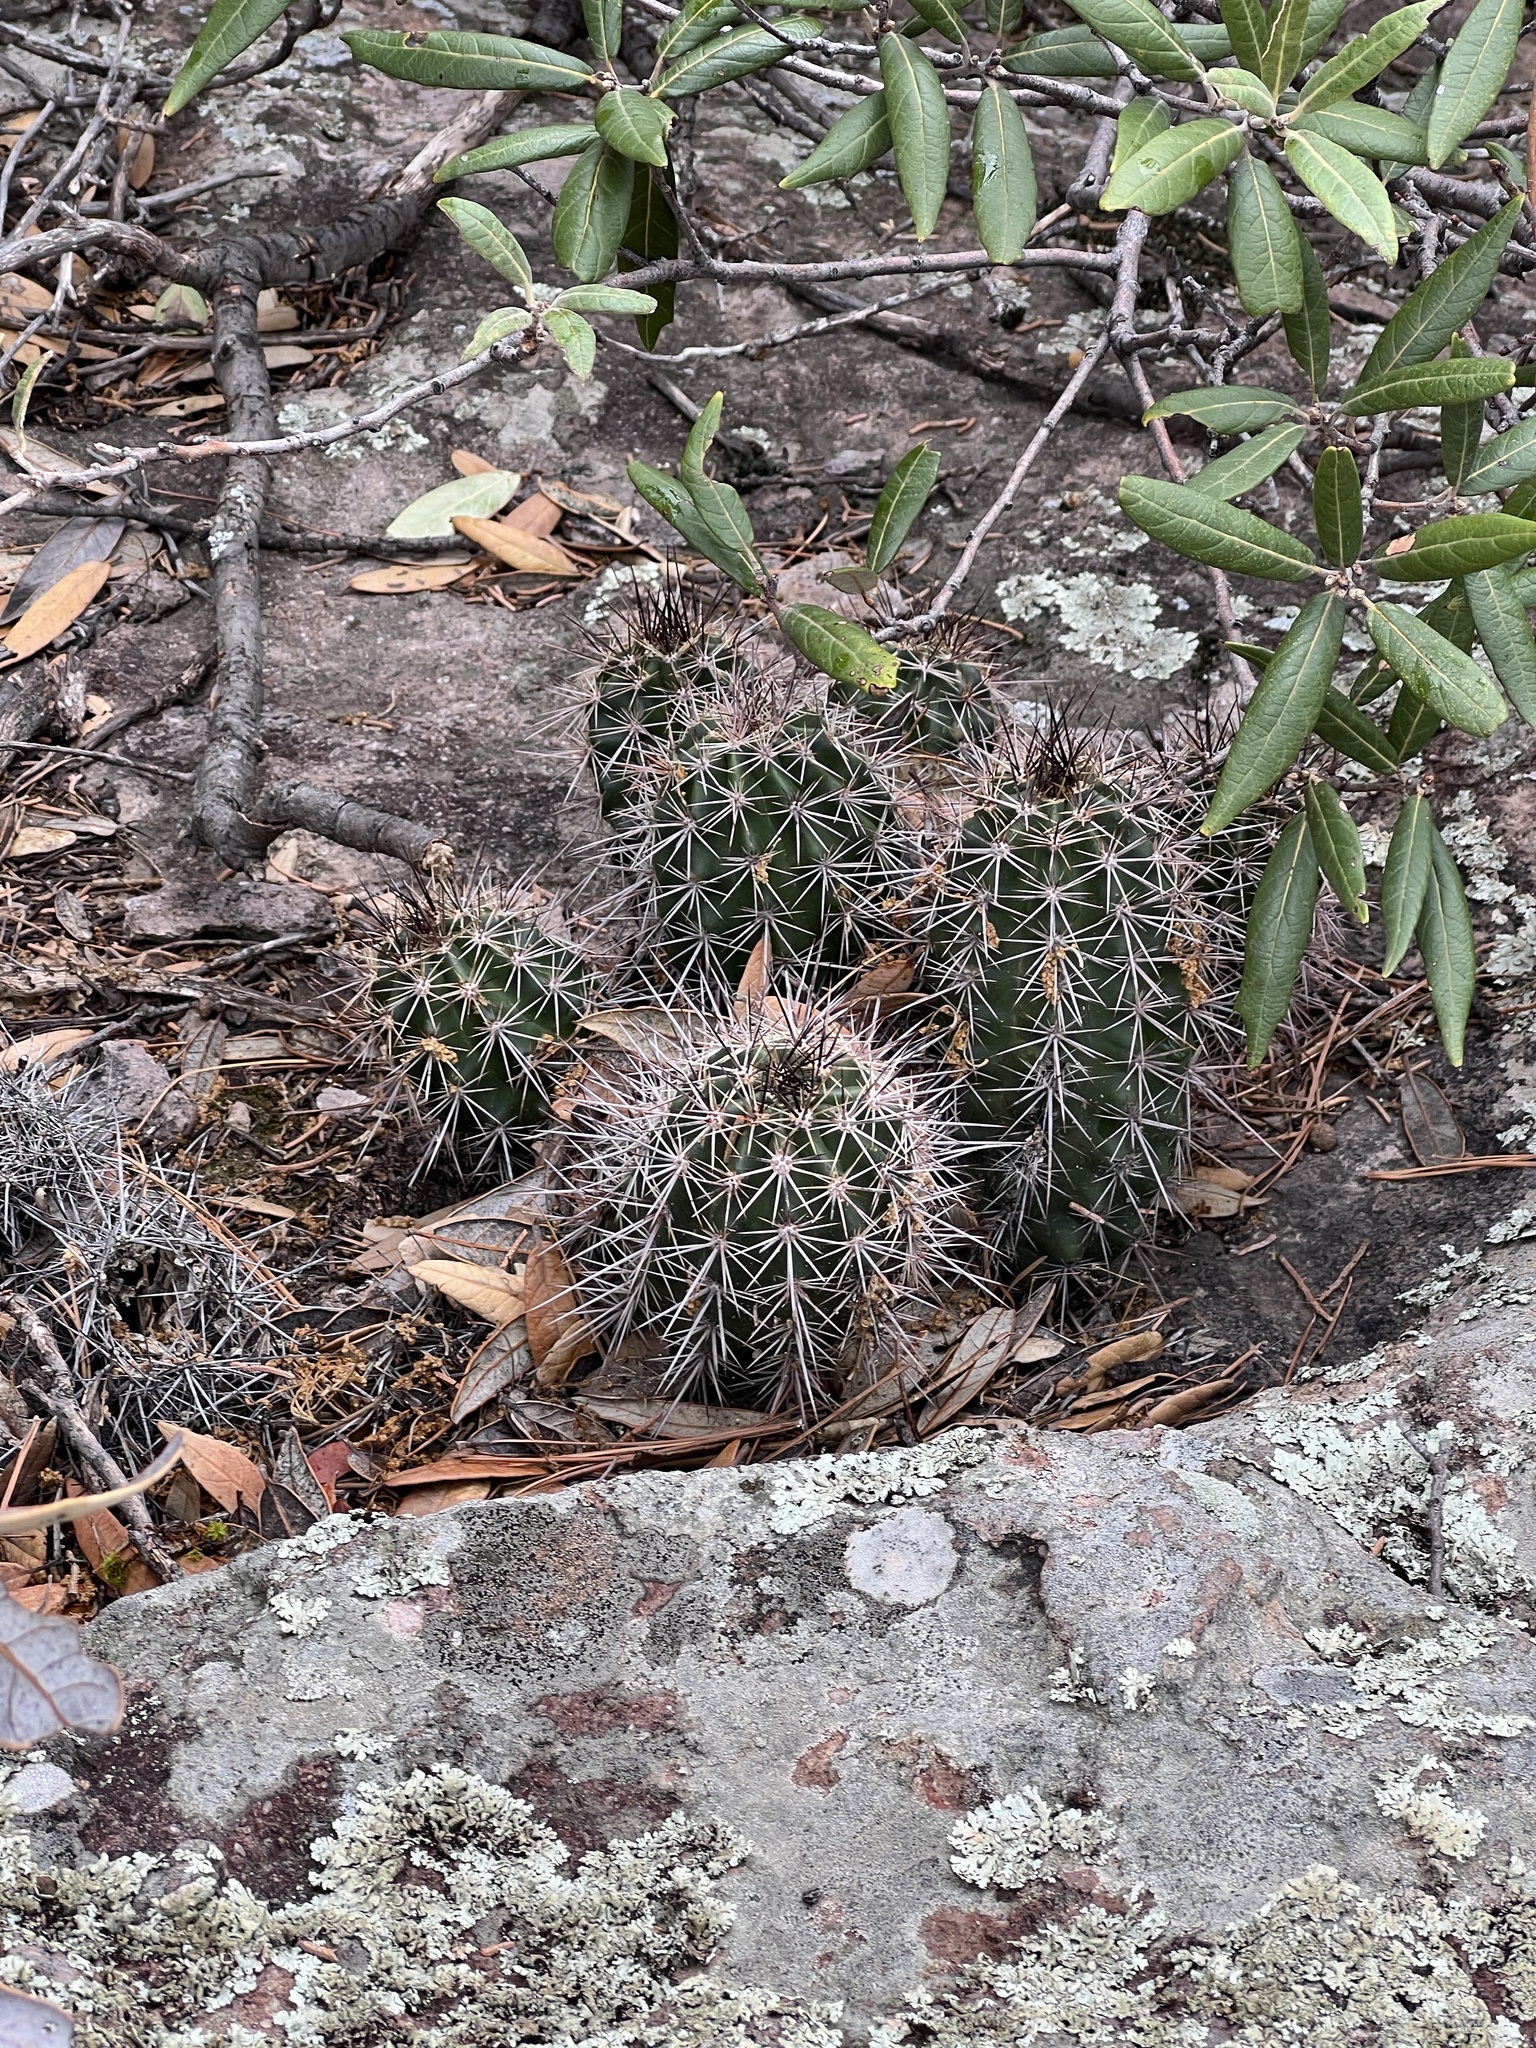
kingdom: Plantae
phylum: Tracheophyta
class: Magnoliopsida
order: Caryophyllales
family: Cactaceae
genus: Echinocereus
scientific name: Echinocereus arizonicus
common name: Arizona hedgehog cactus
